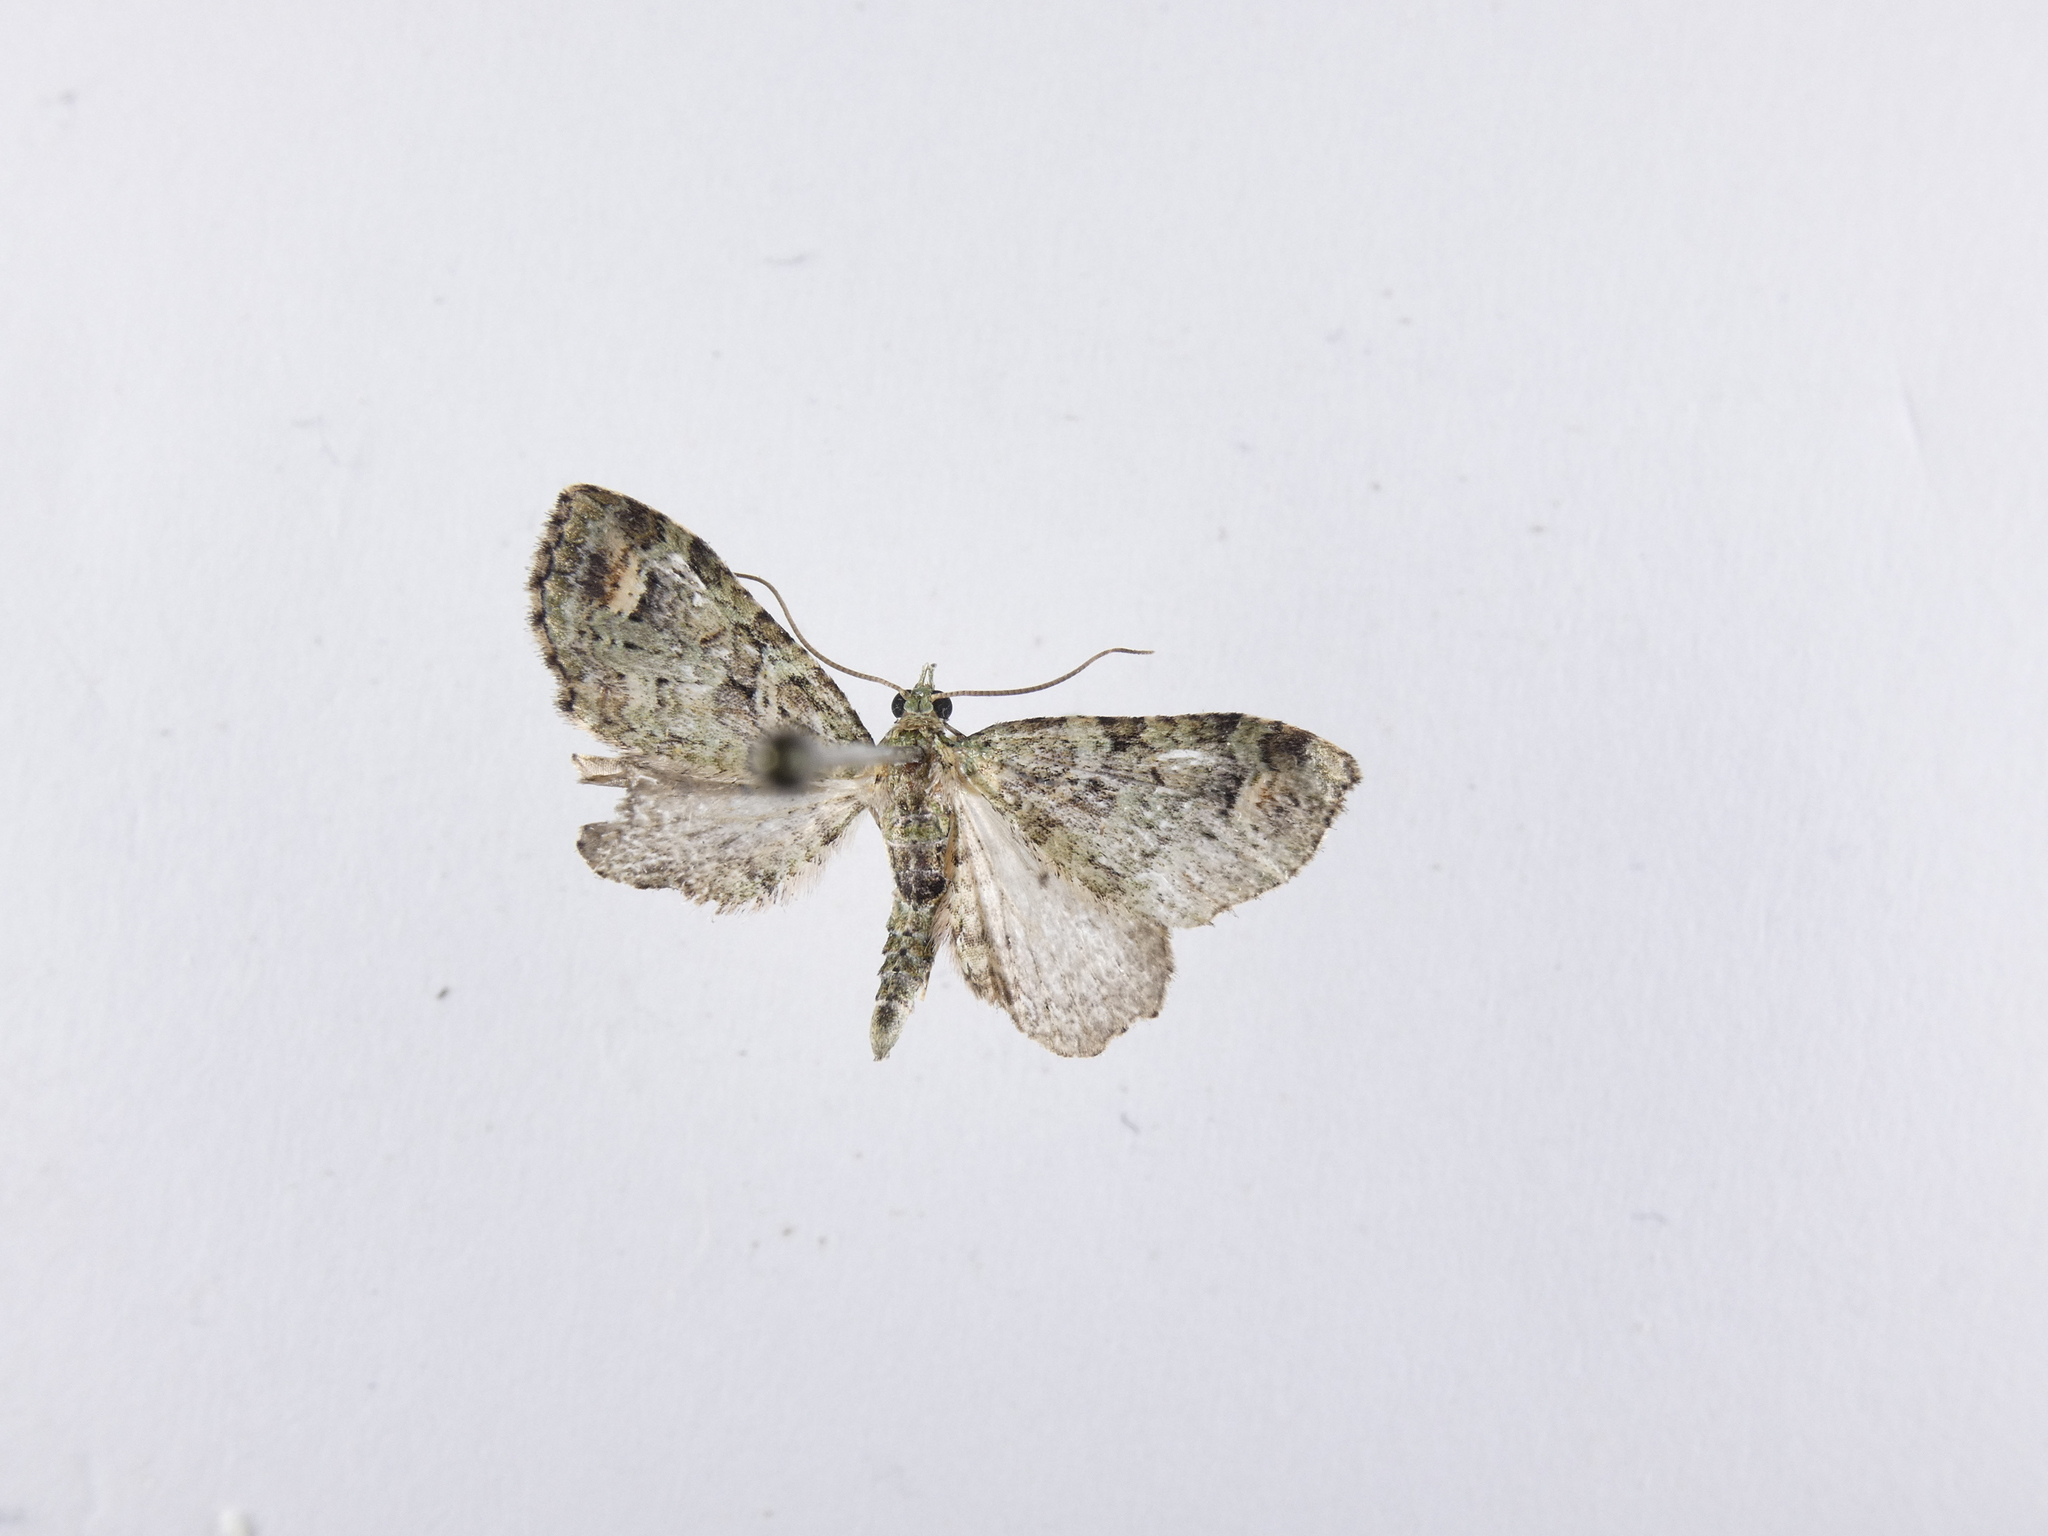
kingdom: Animalia
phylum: Arthropoda
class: Insecta
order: Lepidoptera
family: Geometridae
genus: Idaea
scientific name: Idaea mutanda
